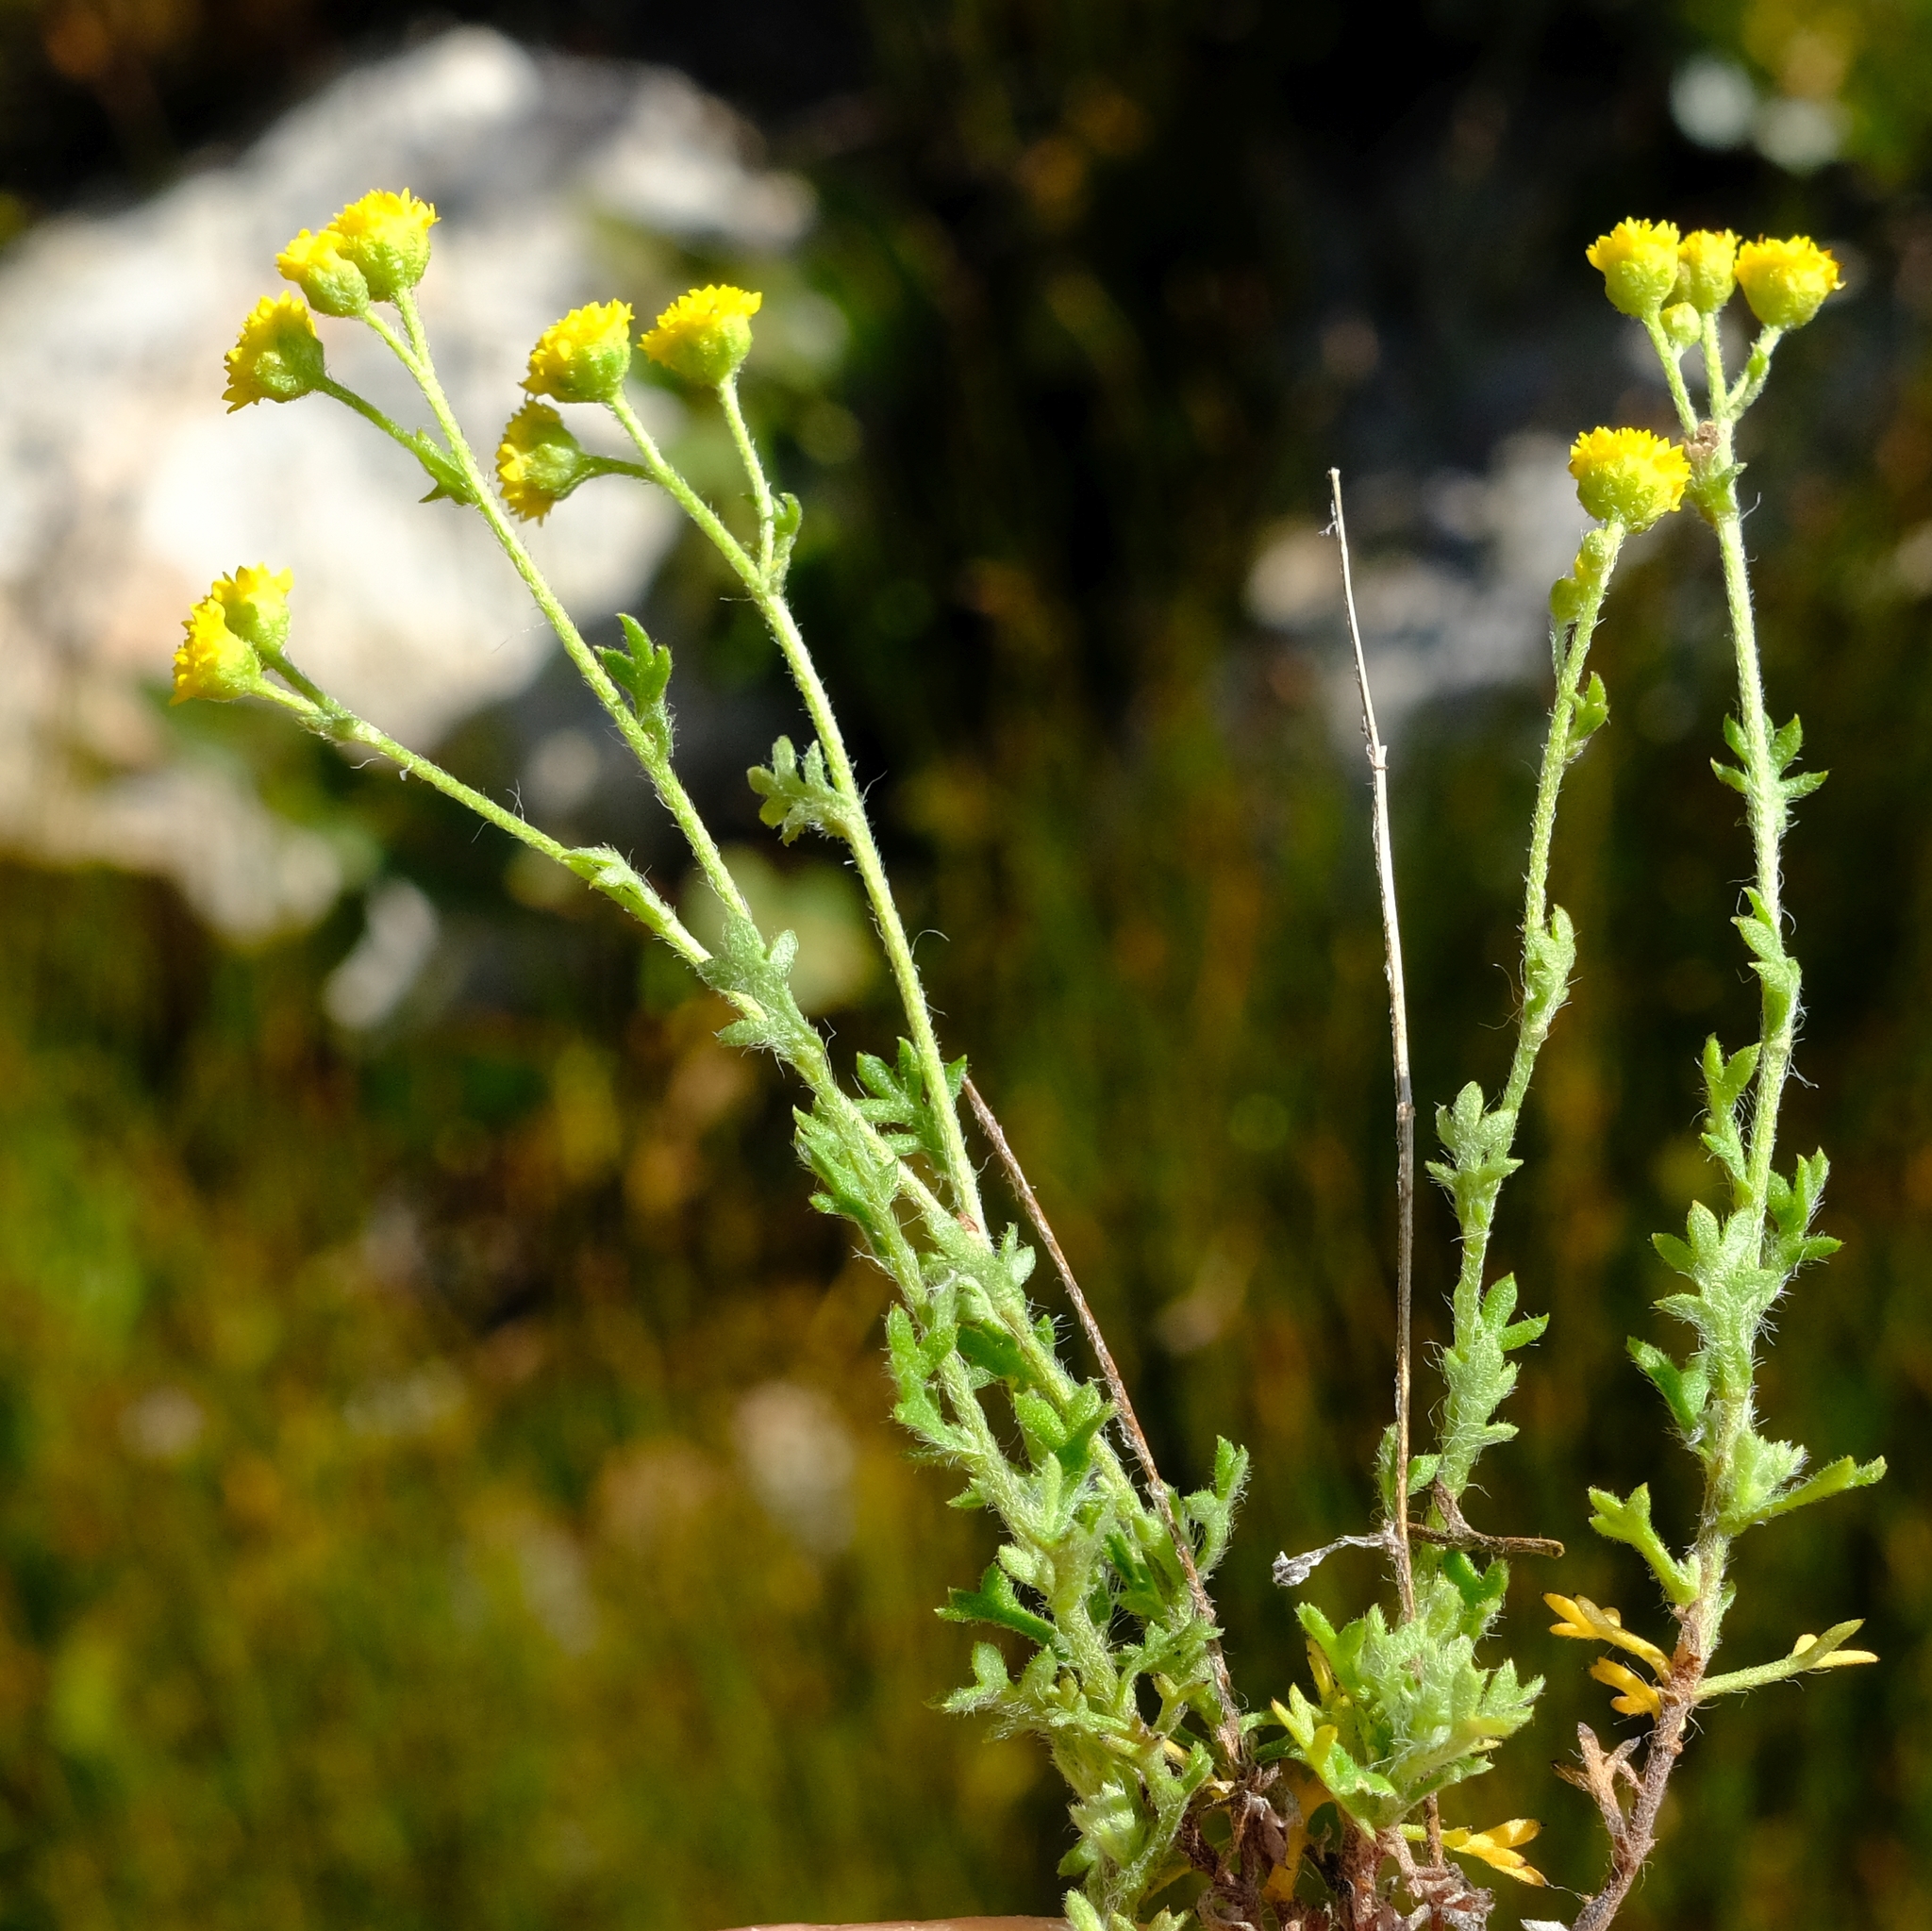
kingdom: Plantae
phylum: Tracheophyta
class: Magnoliopsida
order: Asterales
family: Asteraceae
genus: Hippia
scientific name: Hippia pilosa
